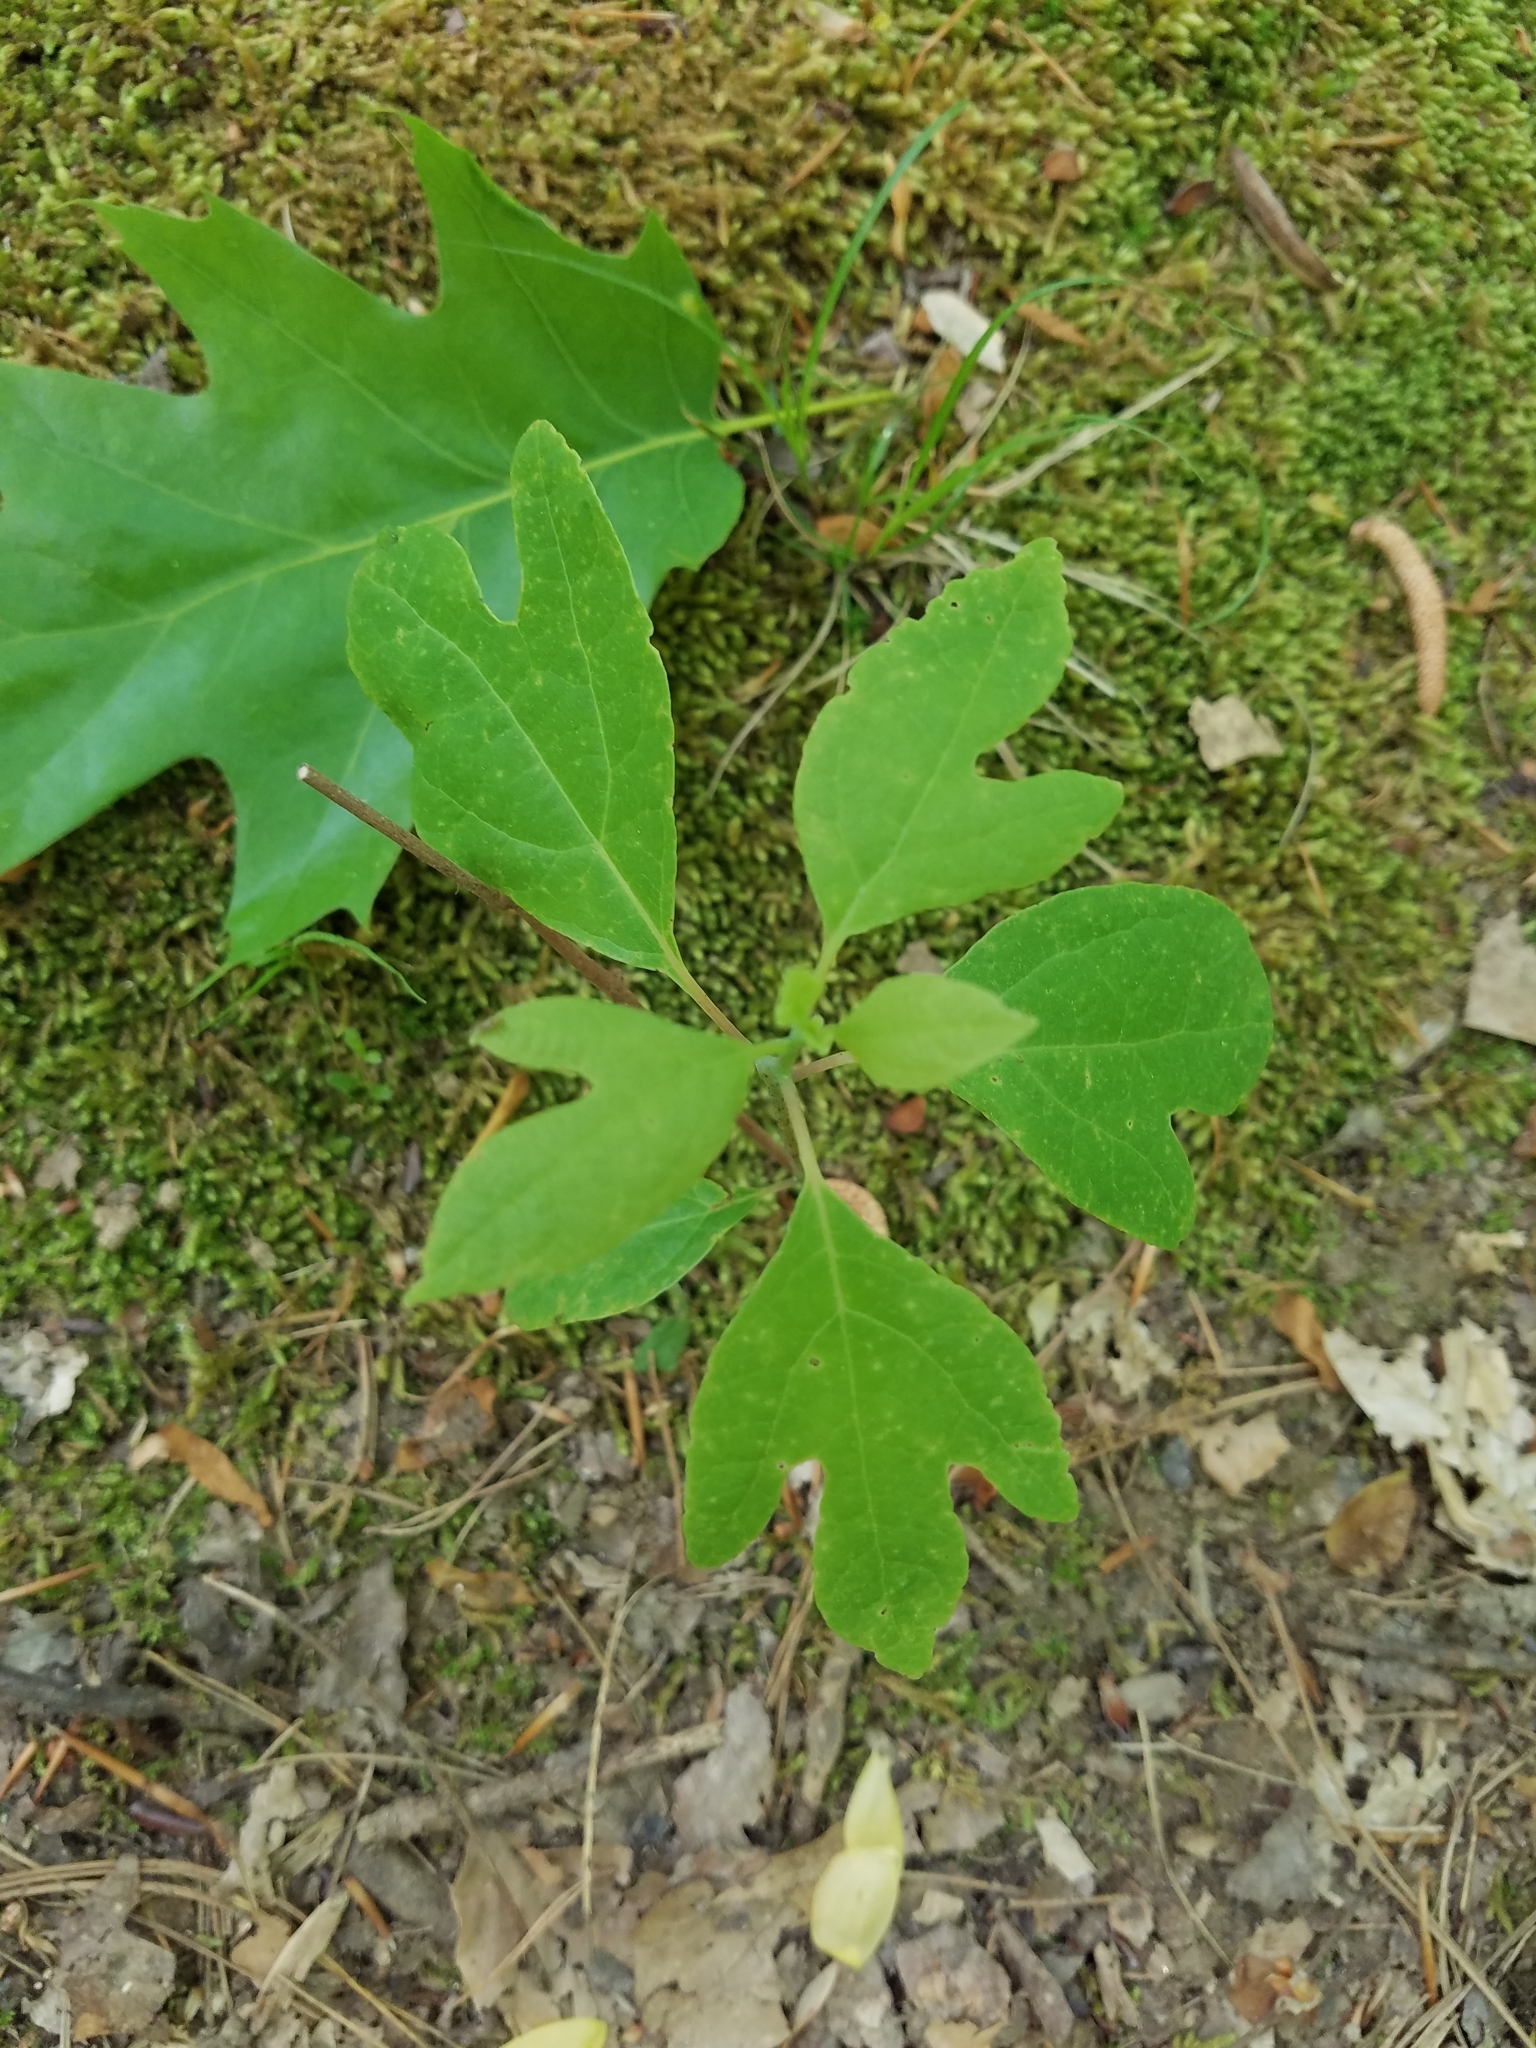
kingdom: Plantae
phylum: Tracheophyta
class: Magnoliopsida
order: Laurales
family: Lauraceae
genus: Sassafras
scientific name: Sassafras albidum
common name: Sassafras
